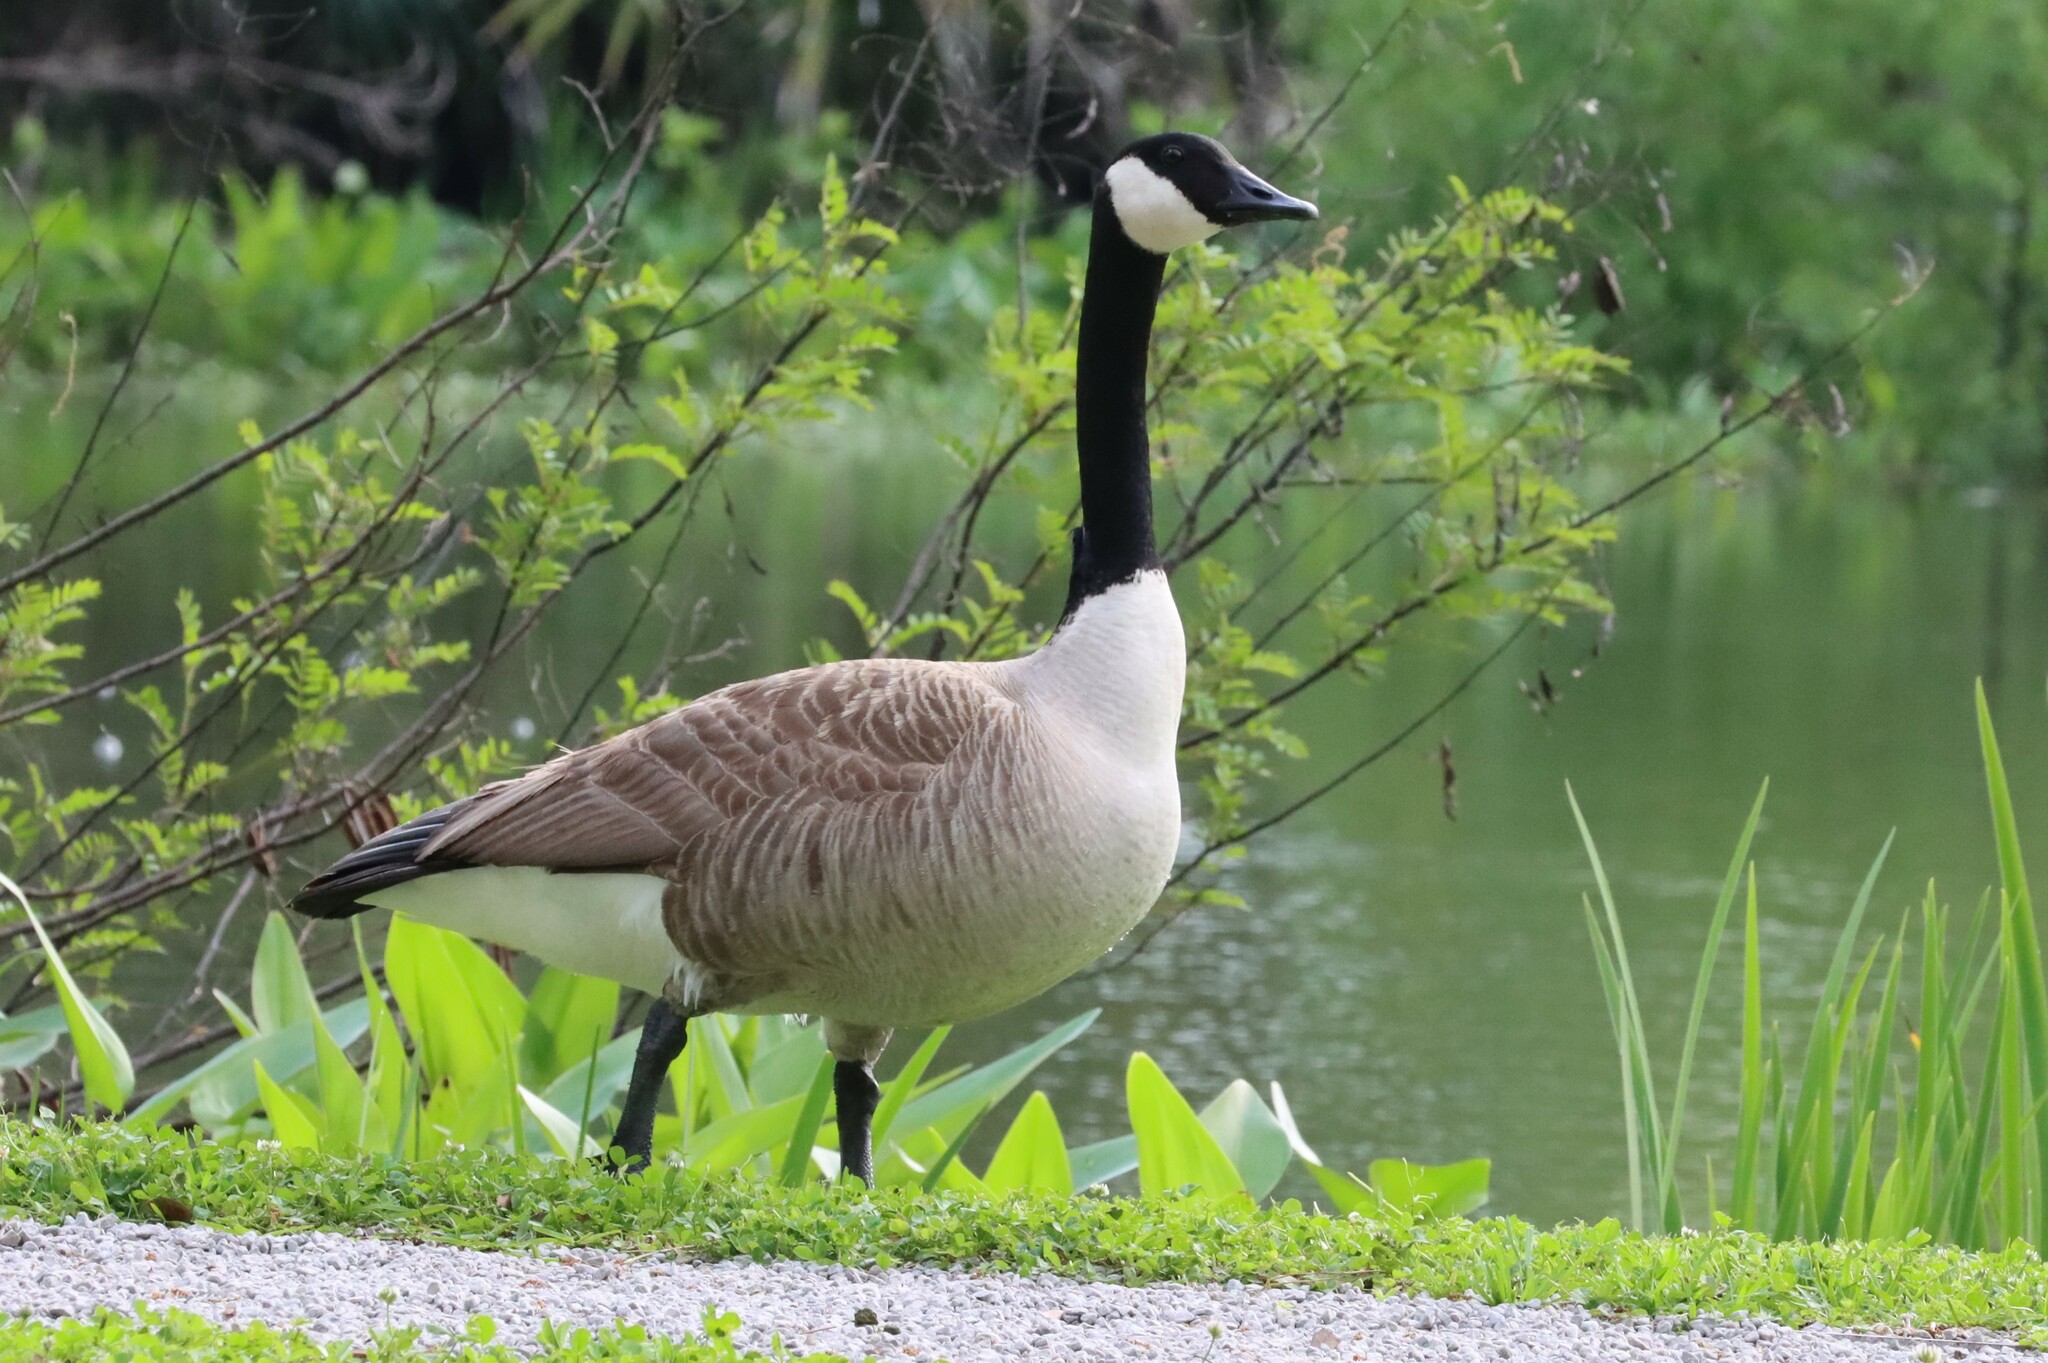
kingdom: Animalia
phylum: Chordata
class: Aves
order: Anseriformes
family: Anatidae
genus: Branta
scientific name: Branta canadensis
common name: Canada goose
